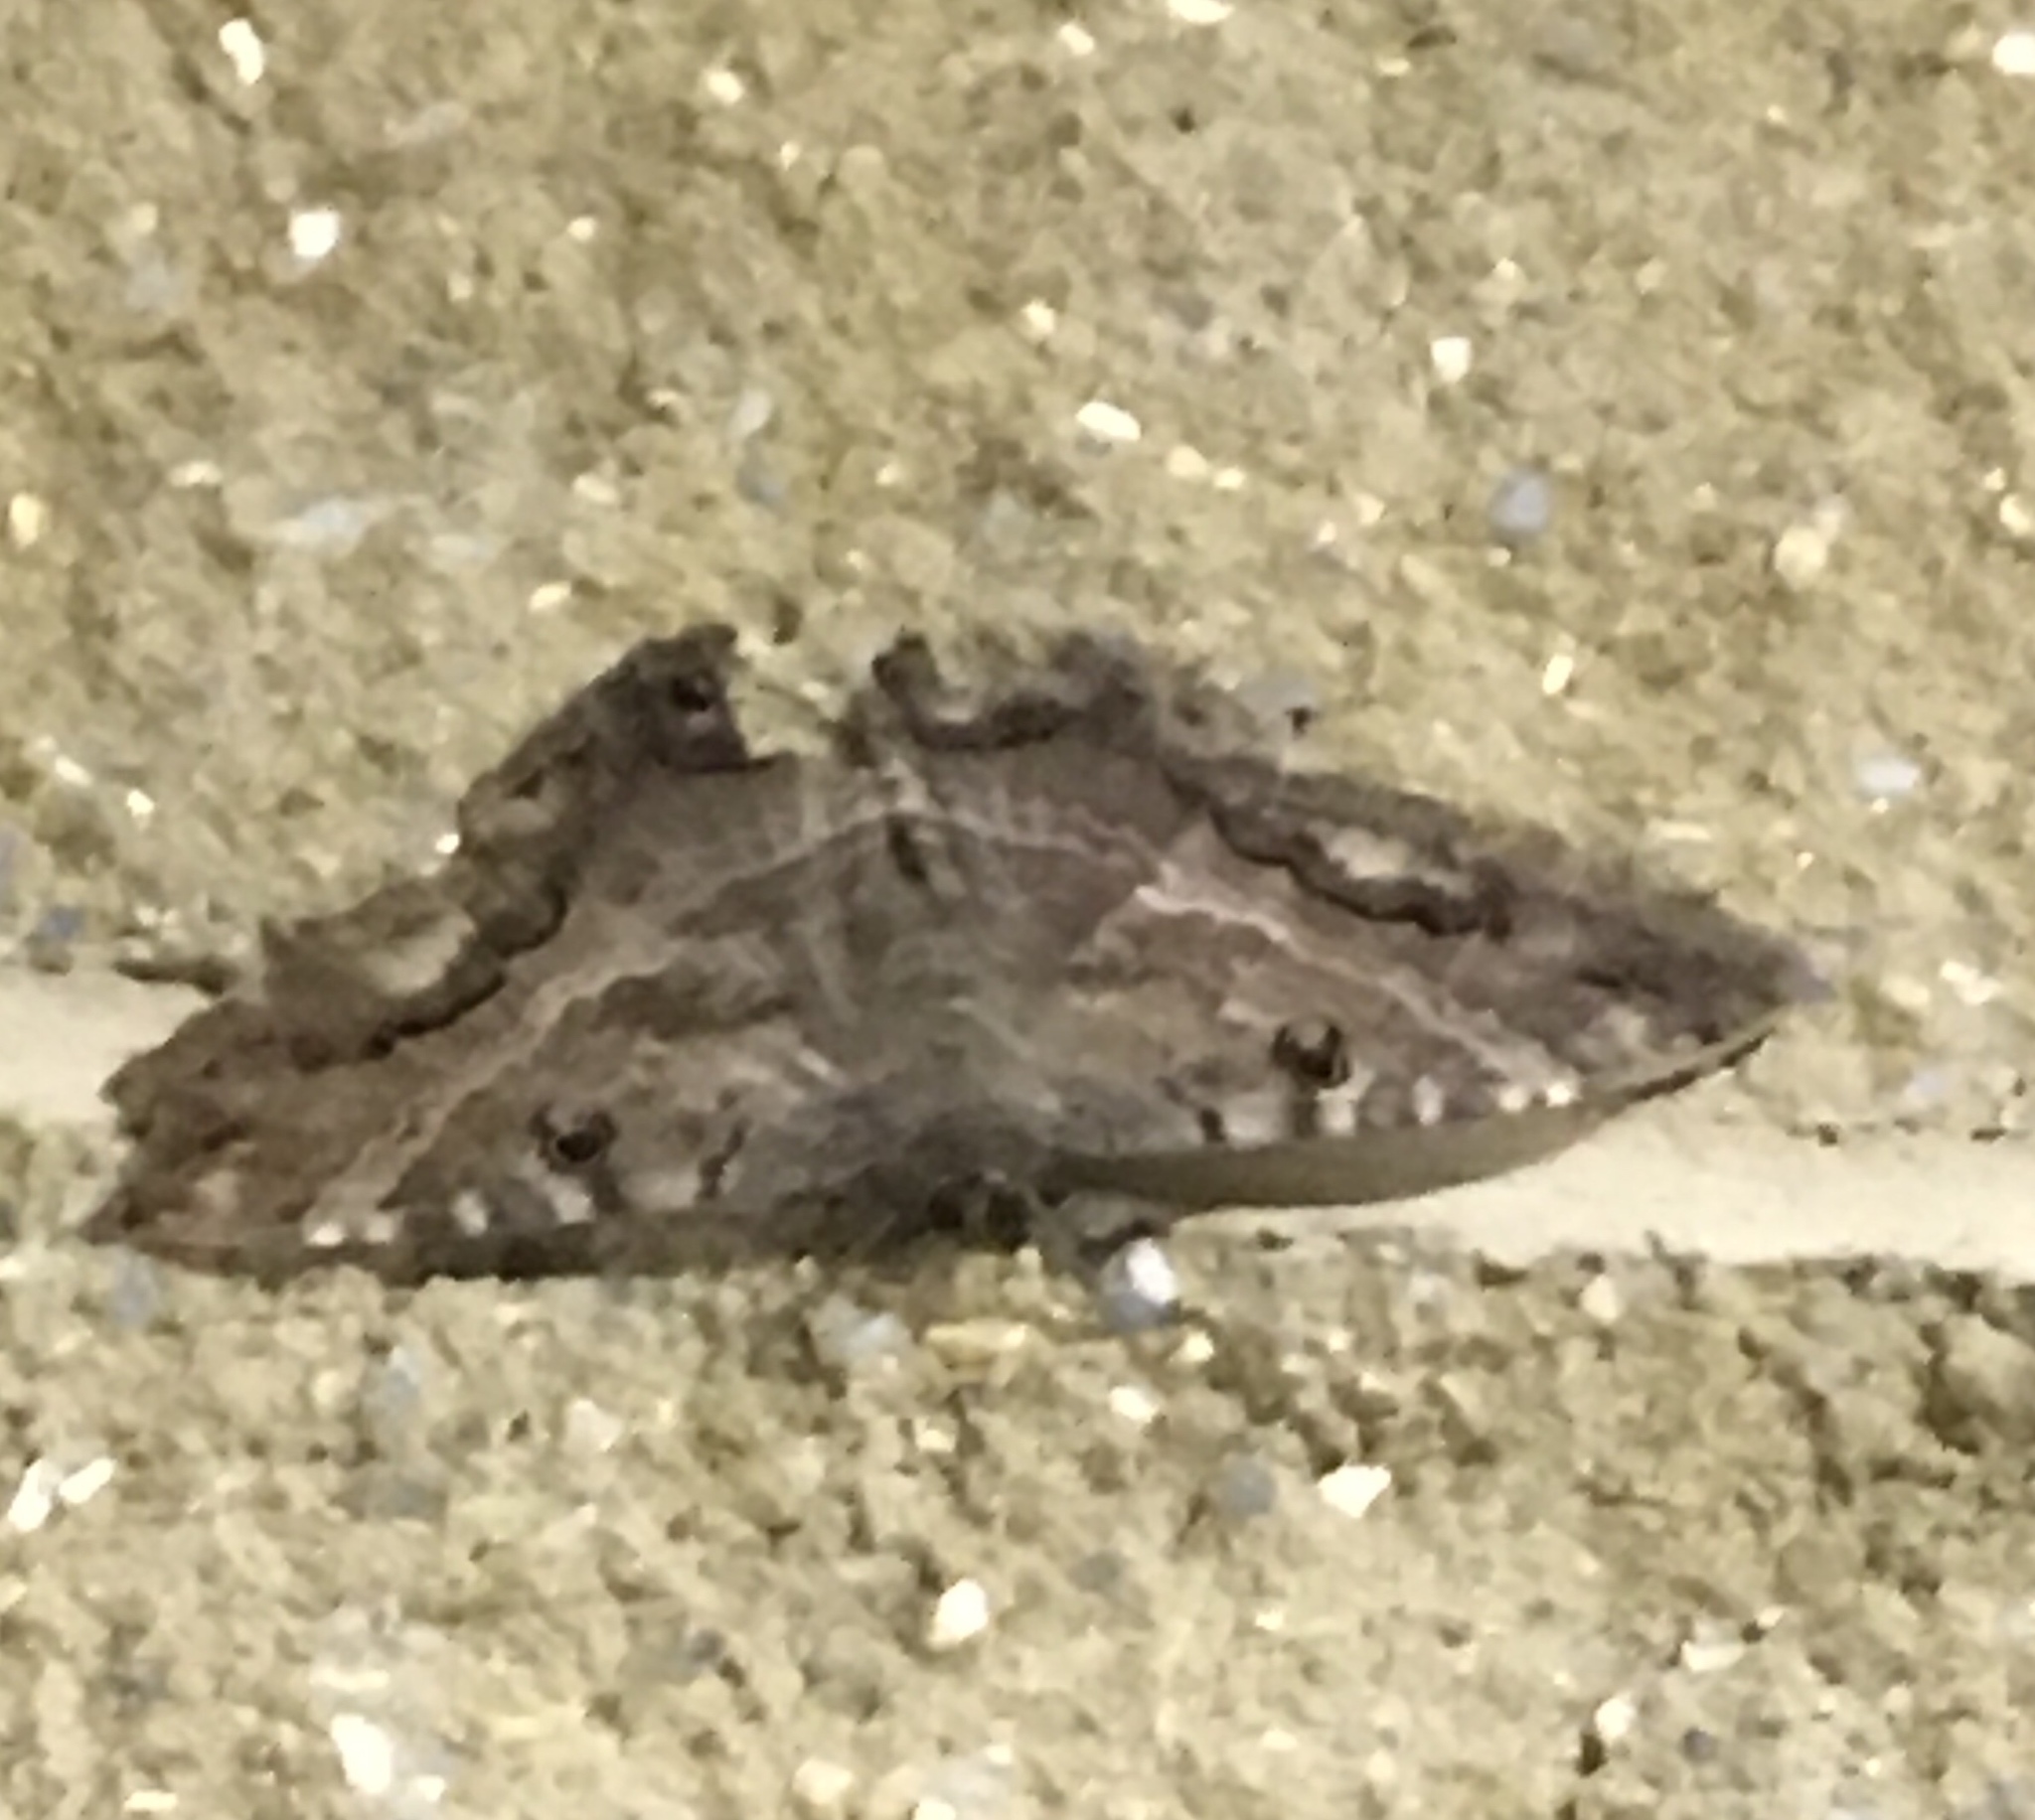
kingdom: Animalia
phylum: Arthropoda
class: Insecta
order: Lepidoptera
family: Erebidae
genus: Ascalapha
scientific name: Ascalapha odorata
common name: Black witch
